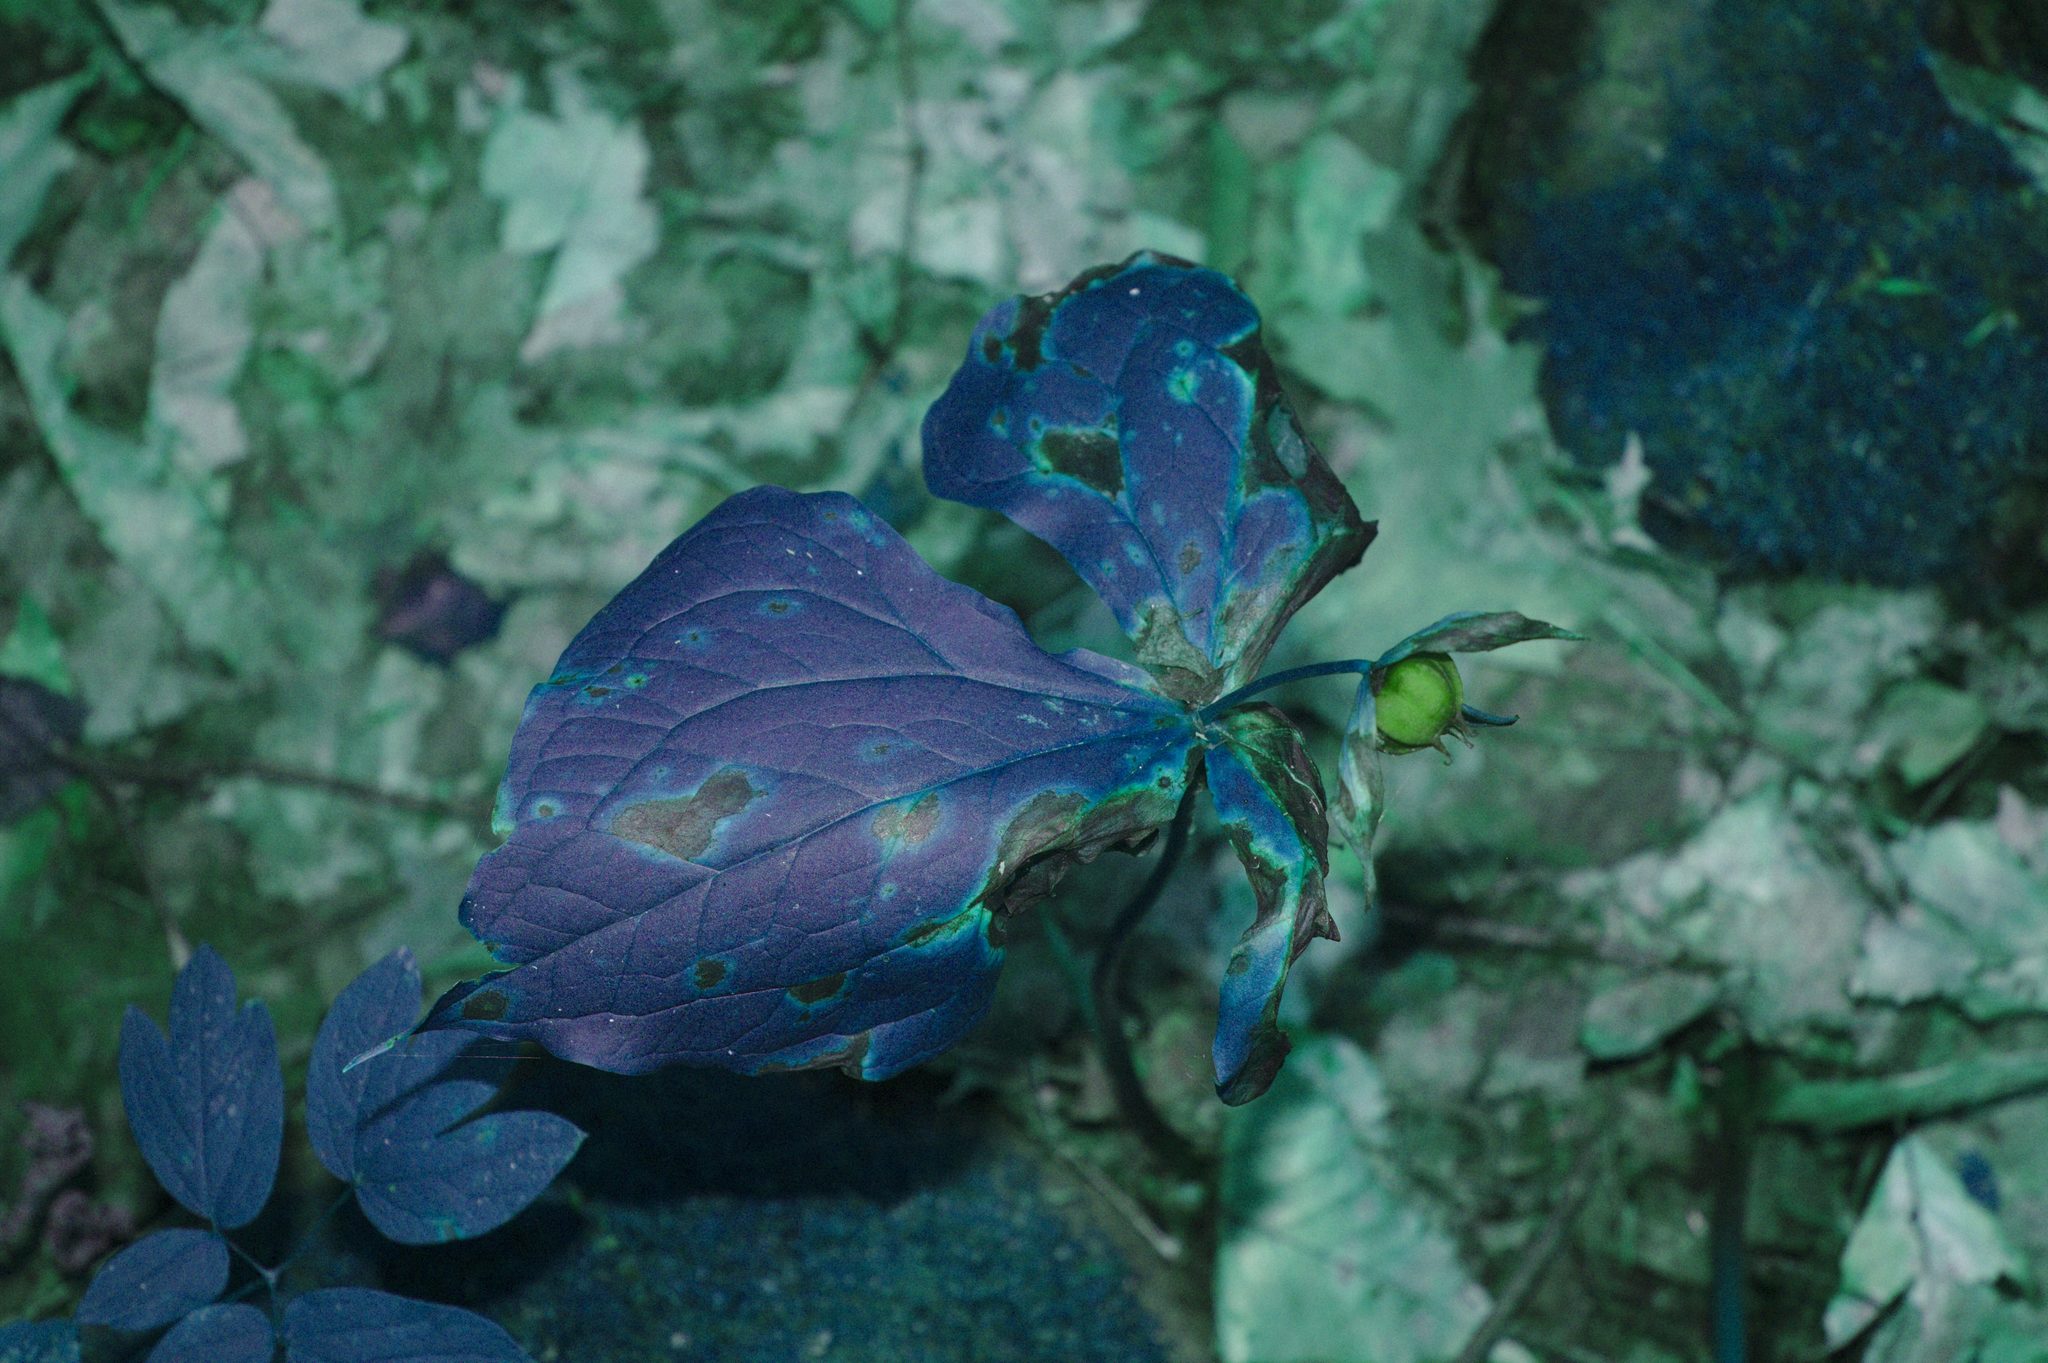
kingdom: Plantae
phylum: Tracheophyta
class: Liliopsida
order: Liliales
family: Melanthiaceae
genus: Trillium
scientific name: Trillium erectum
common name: Purple trillium
